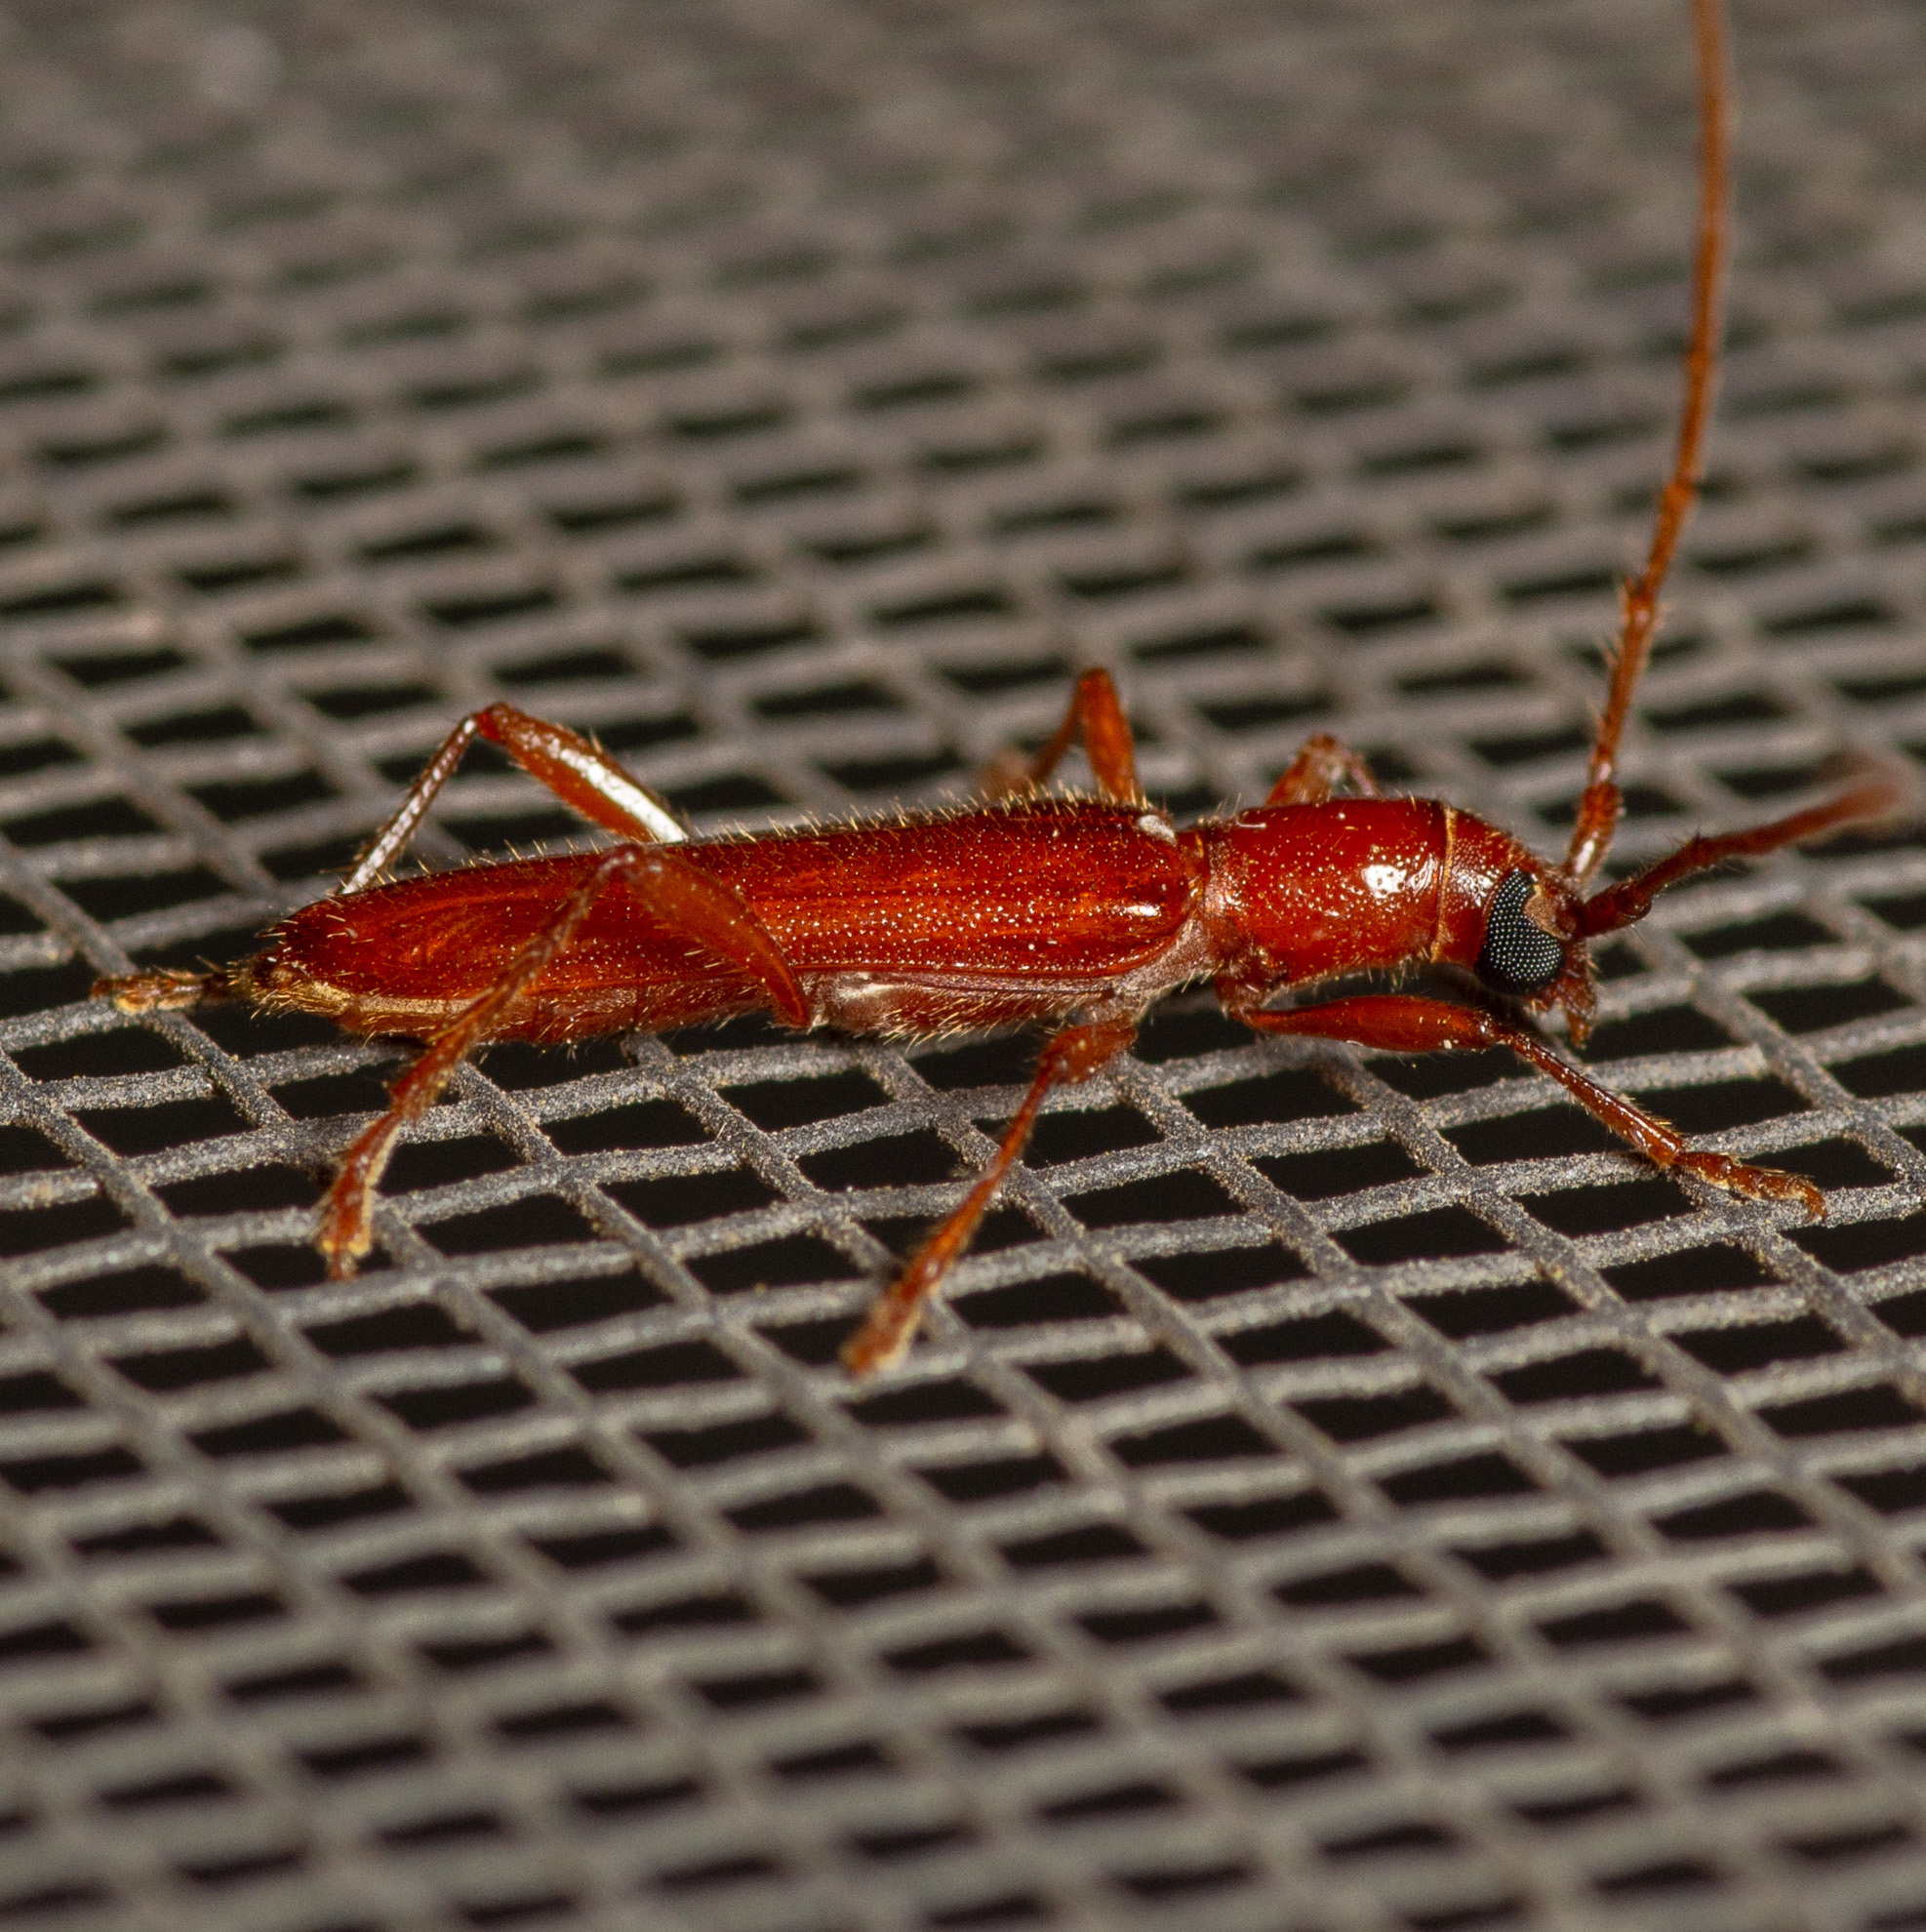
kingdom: Animalia
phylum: Arthropoda
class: Insecta
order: Coleoptera
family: Cerambycidae
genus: Psyrassa
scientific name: Psyrassa unicolor
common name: Branch pruner
